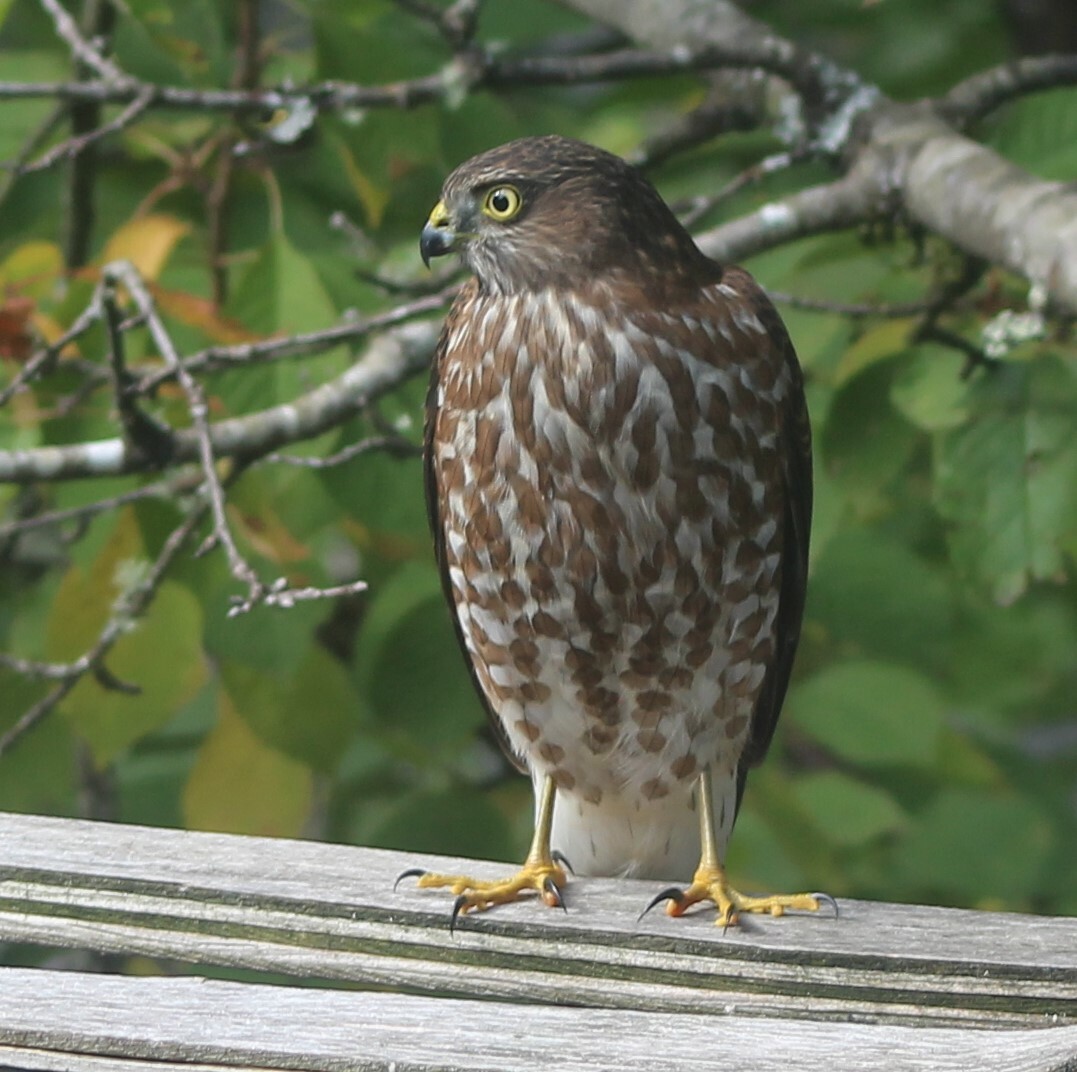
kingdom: Animalia
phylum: Chordata
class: Aves
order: Accipitriformes
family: Accipitridae
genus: Accipiter
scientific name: Accipiter striatus
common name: Sharp-shinned hawk
